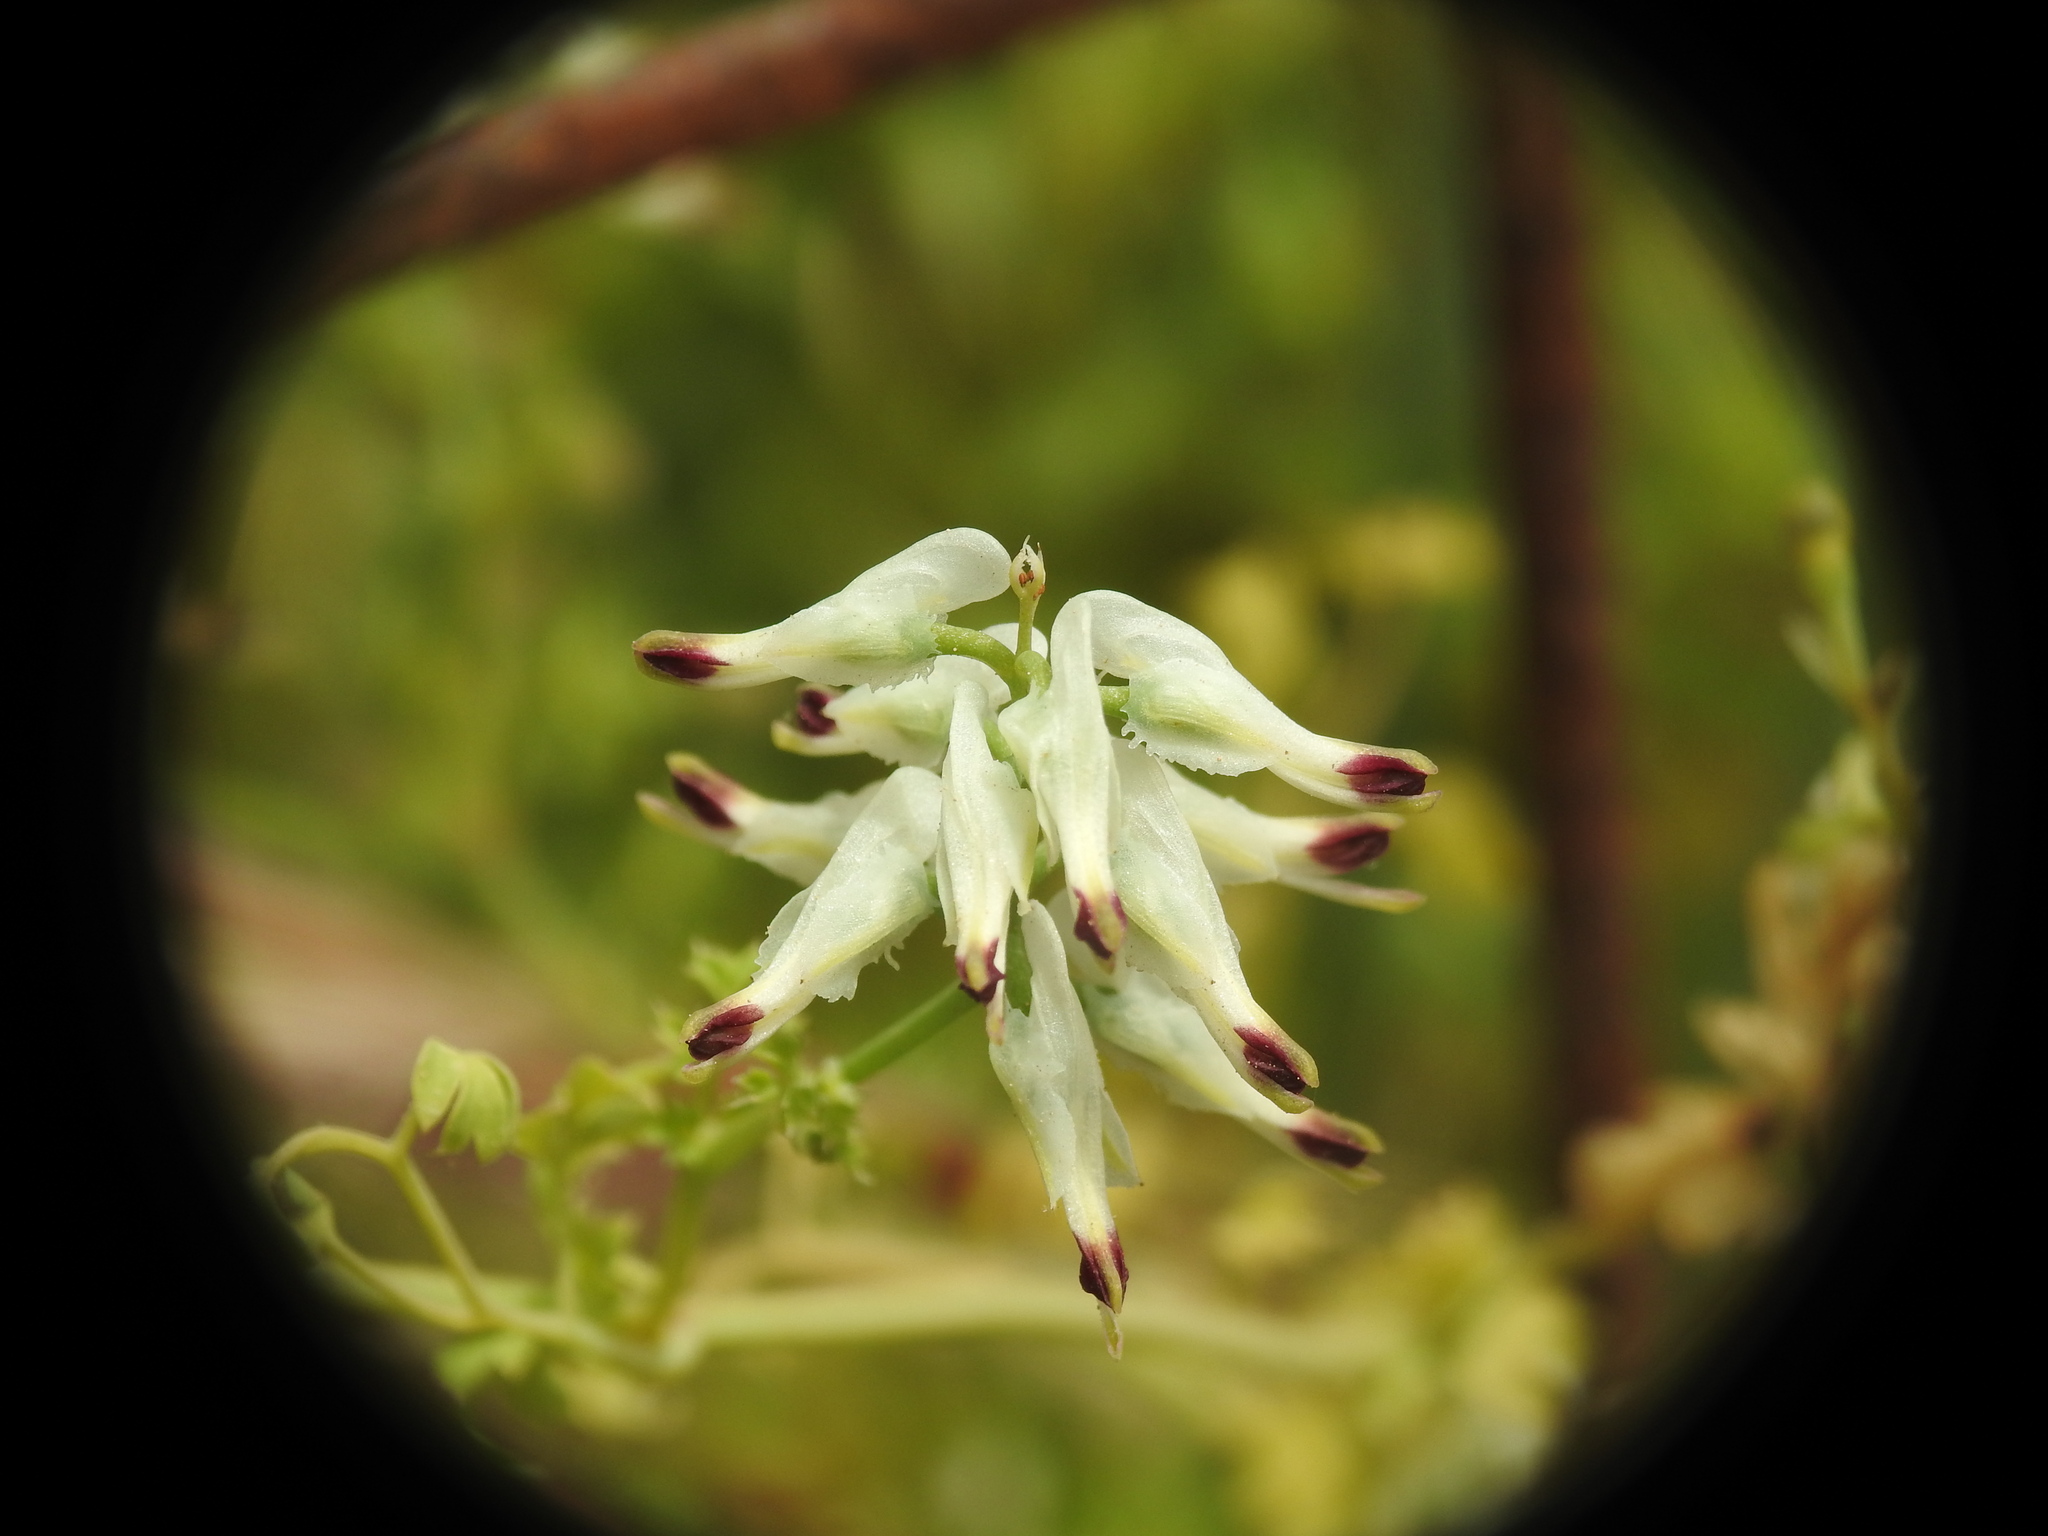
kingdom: Plantae
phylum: Tracheophyta
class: Magnoliopsida
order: Ranunculales
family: Papaveraceae
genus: Fumaria
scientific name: Fumaria capreolata
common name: White ramping-fumitory
